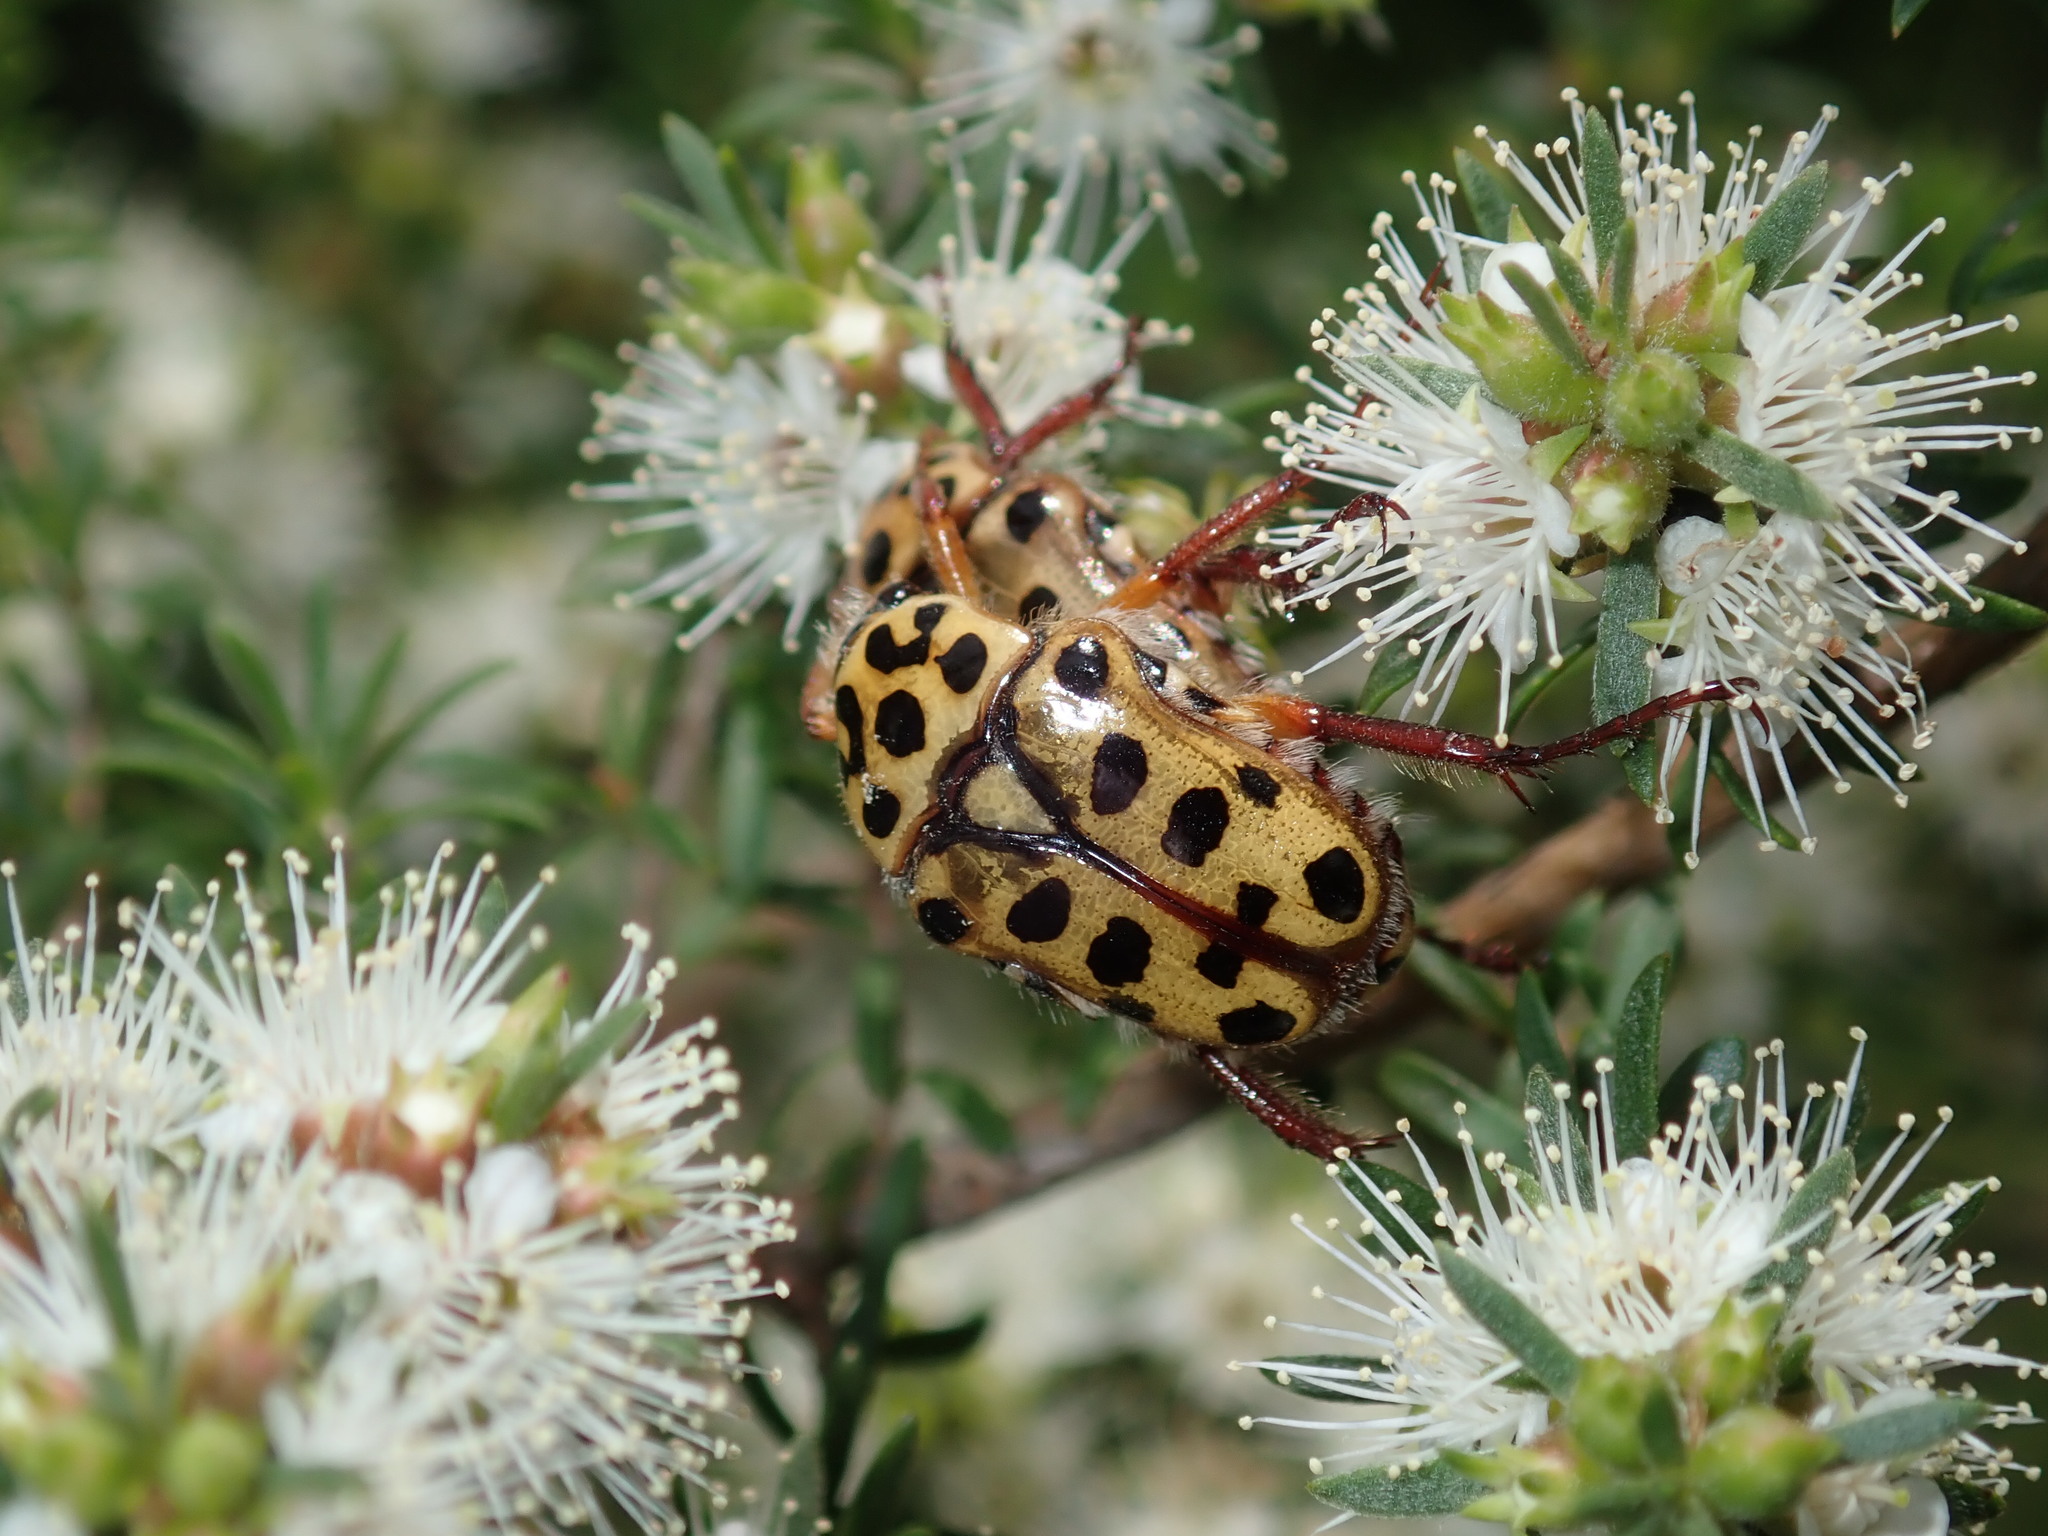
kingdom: Animalia
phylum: Arthropoda
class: Insecta
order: Coleoptera
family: Scarabaeidae
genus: Neorrhina
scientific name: Neorrhina punctatum
